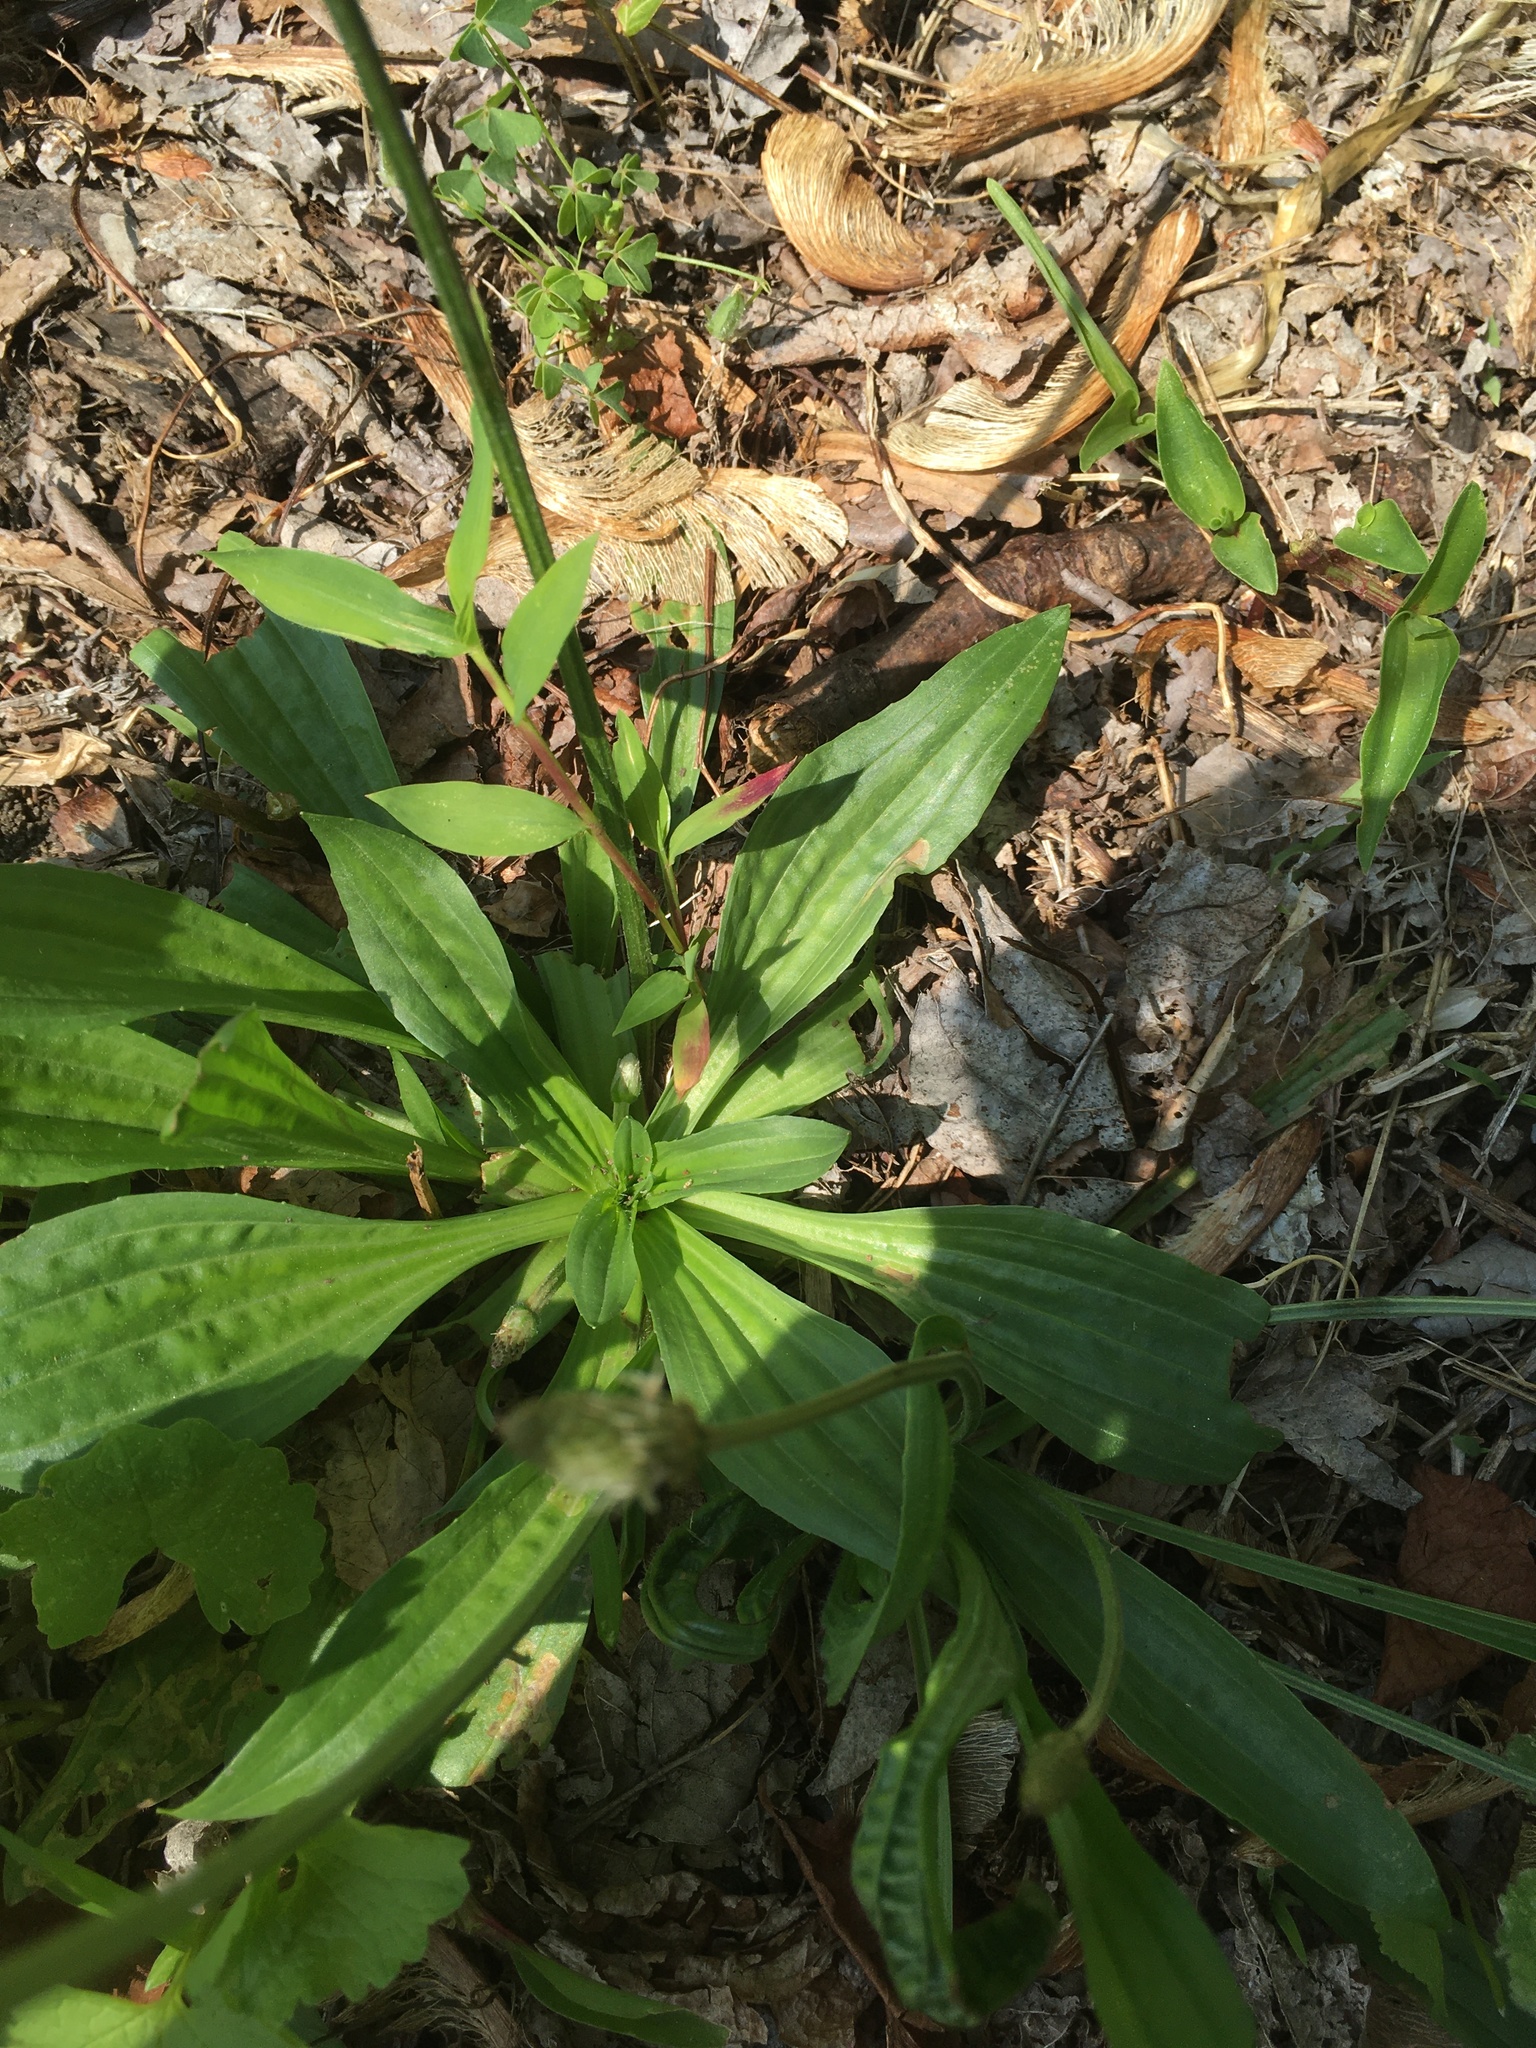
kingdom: Plantae
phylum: Tracheophyta
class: Magnoliopsida
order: Lamiales
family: Plantaginaceae
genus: Plantago
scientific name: Plantago lanceolata
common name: Ribwort plantain
